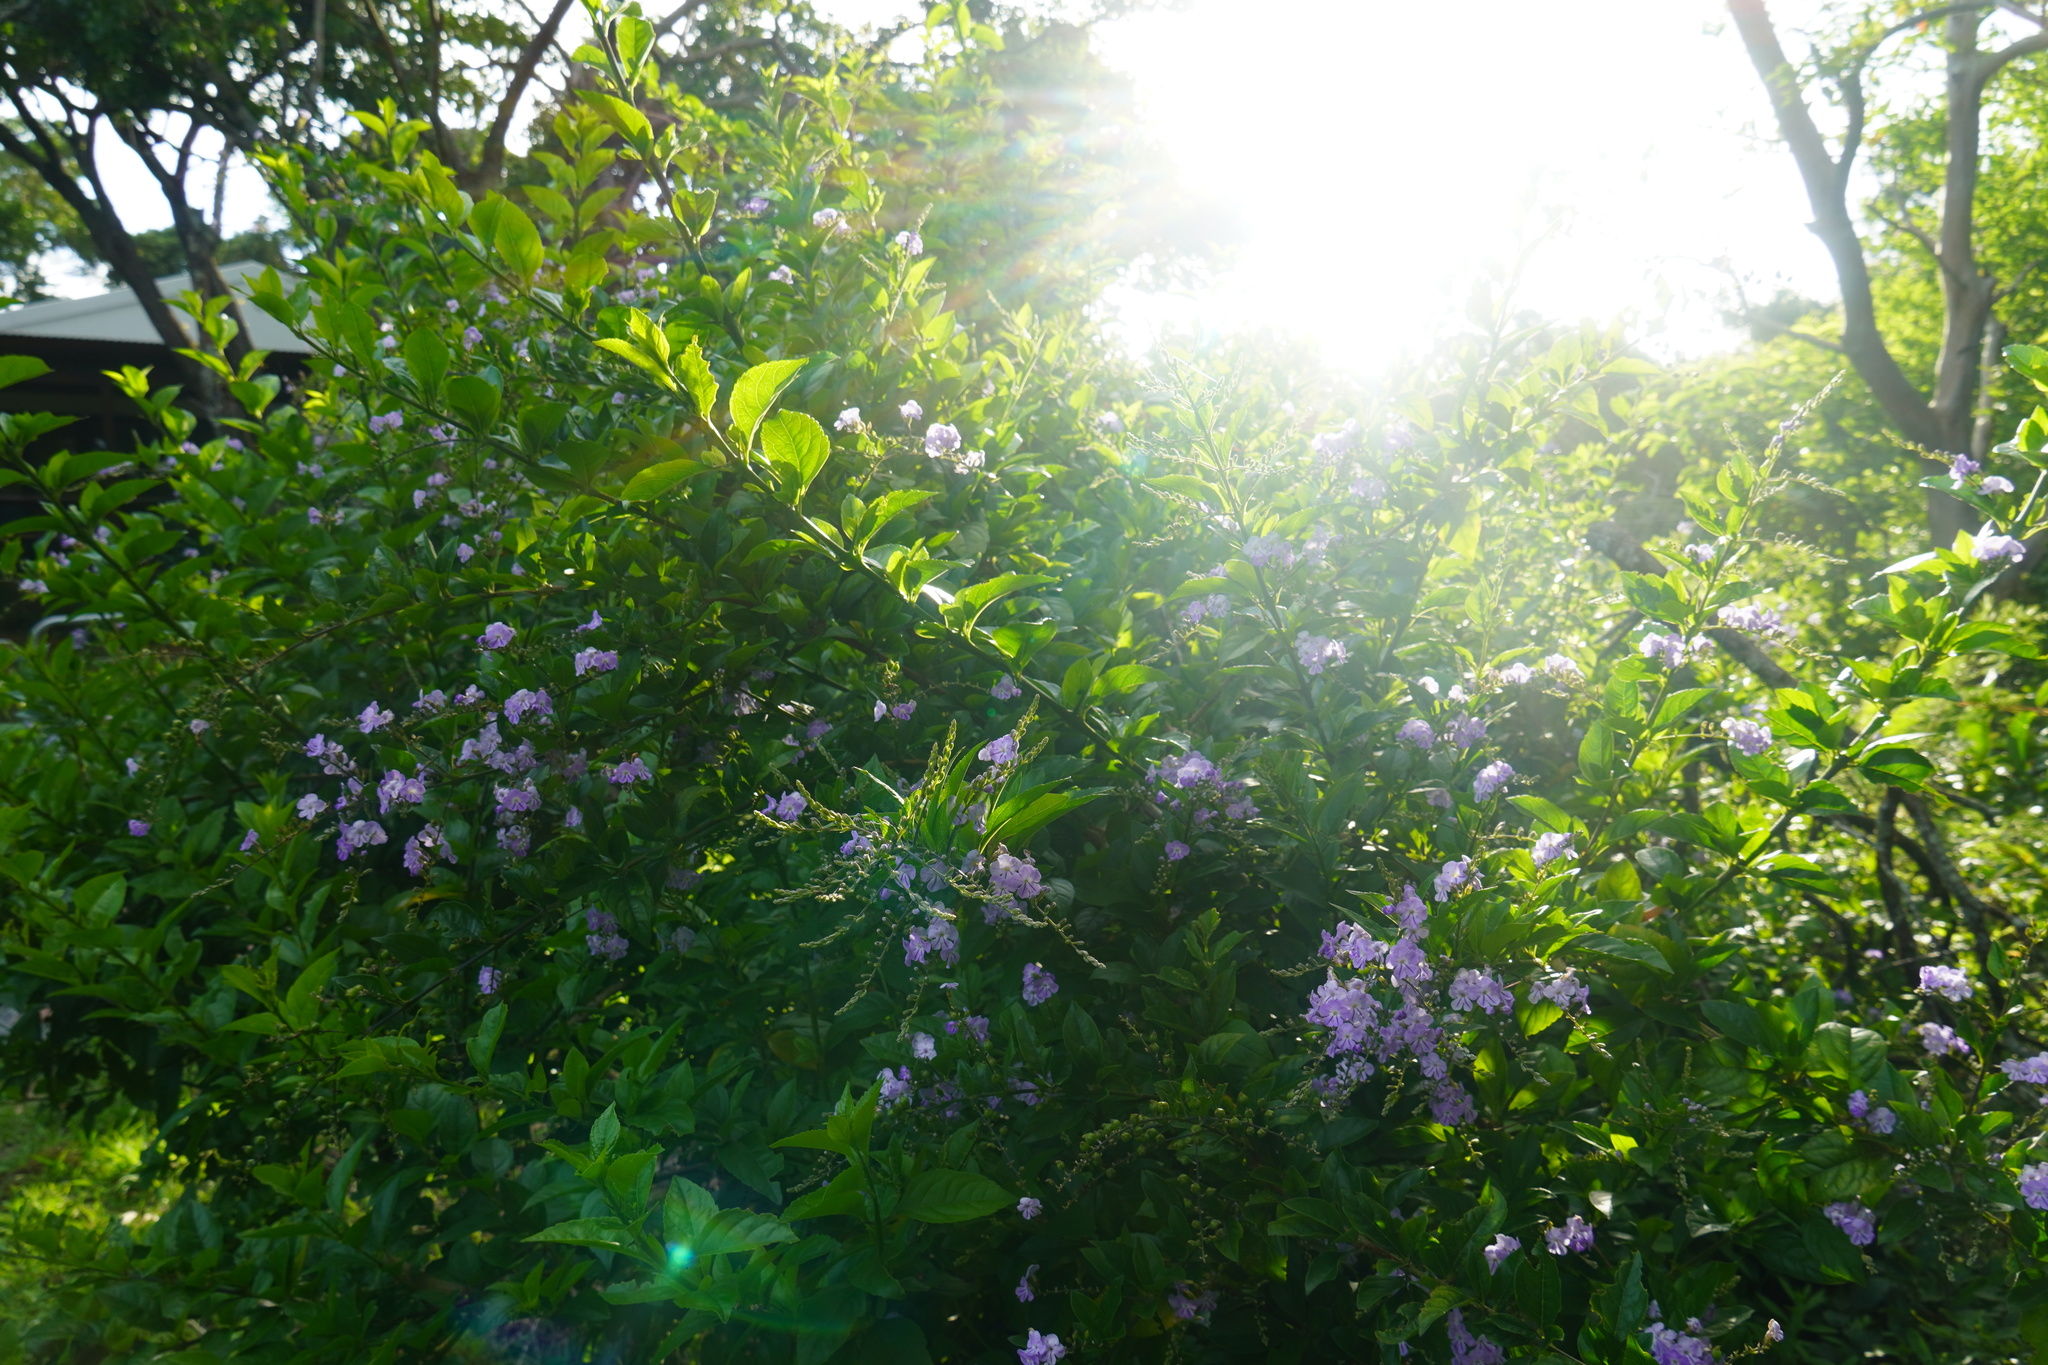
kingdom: Plantae
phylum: Tracheophyta
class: Magnoliopsida
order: Lamiales
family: Verbenaceae
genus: Duranta
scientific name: Duranta erecta
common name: Golden dewdrops
